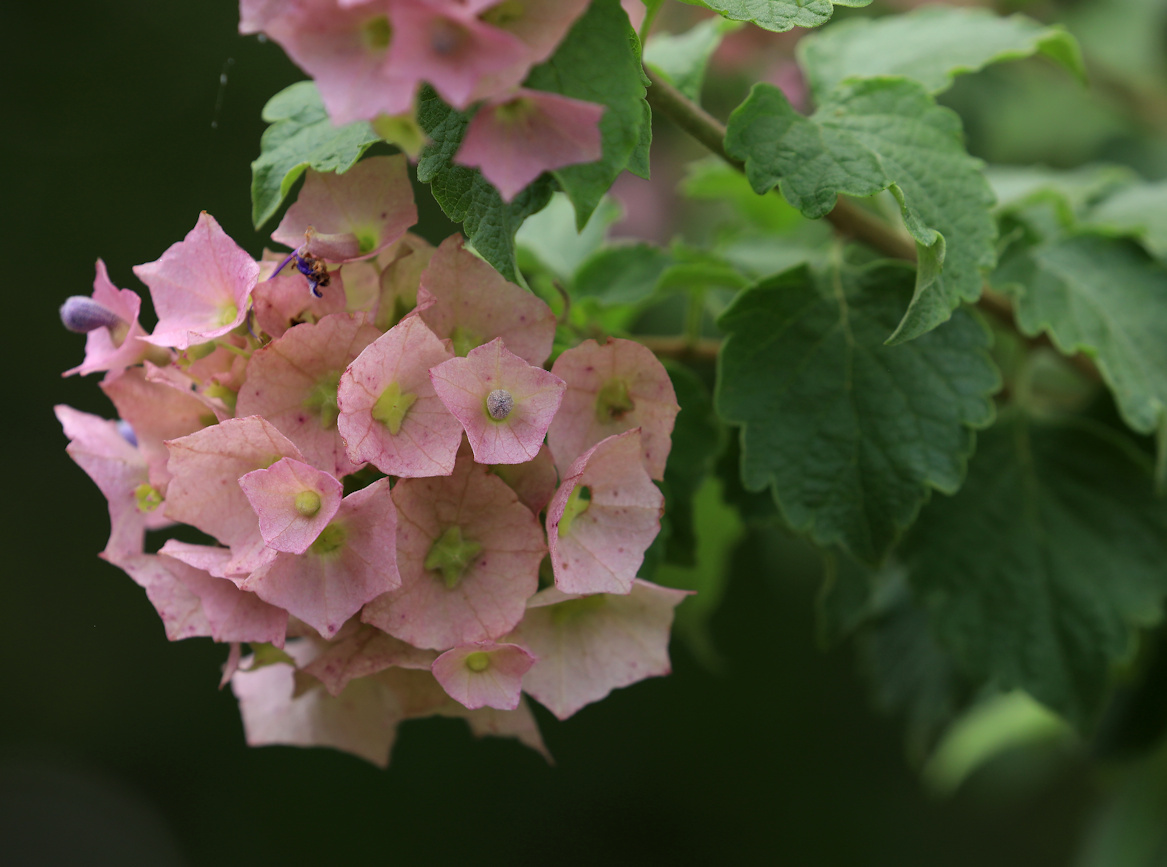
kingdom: Plantae
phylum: Tracheophyta
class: Magnoliopsida
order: Lamiales
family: Lamiaceae
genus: Karomia
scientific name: Karomia speciosa
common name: Southern chinese-hats
